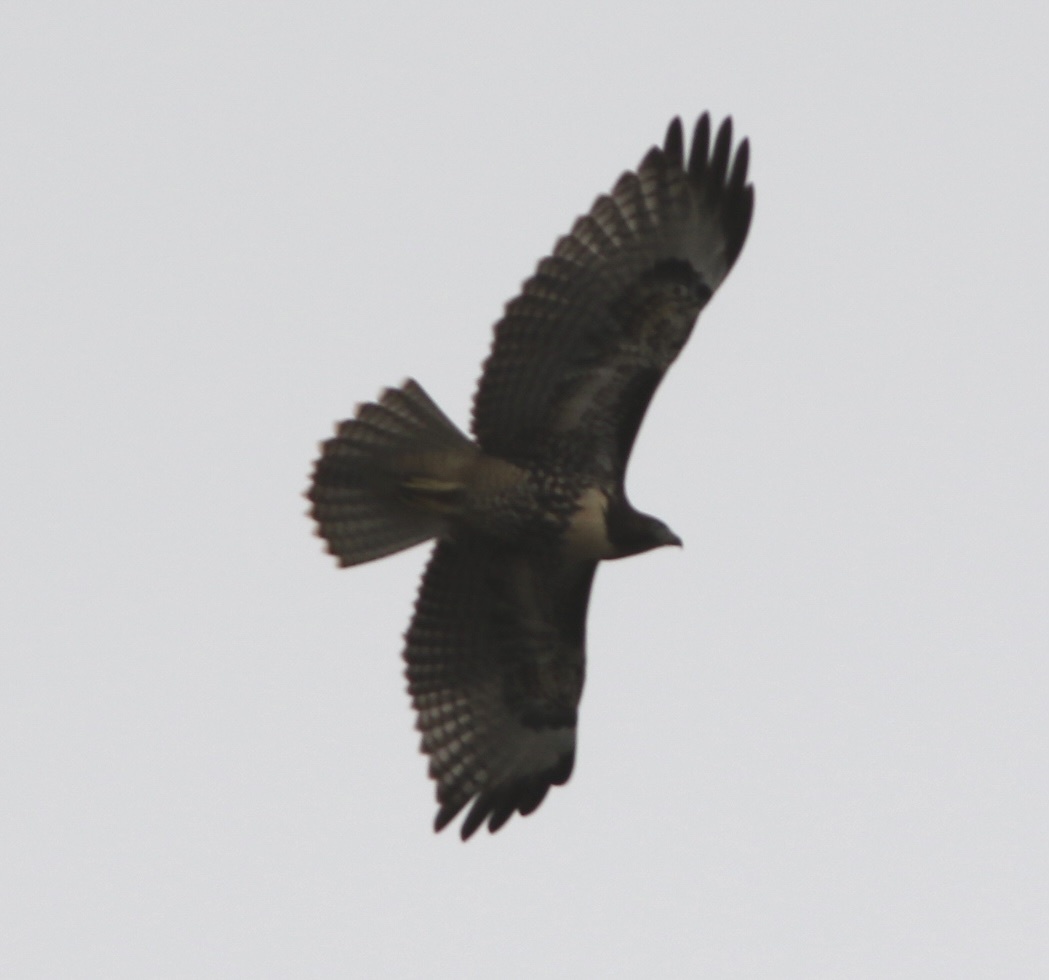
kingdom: Animalia
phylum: Chordata
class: Aves
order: Accipitriformes
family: Accipitridae
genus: Buteo
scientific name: Buteo jamaicensis
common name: Red-tailed hawk
